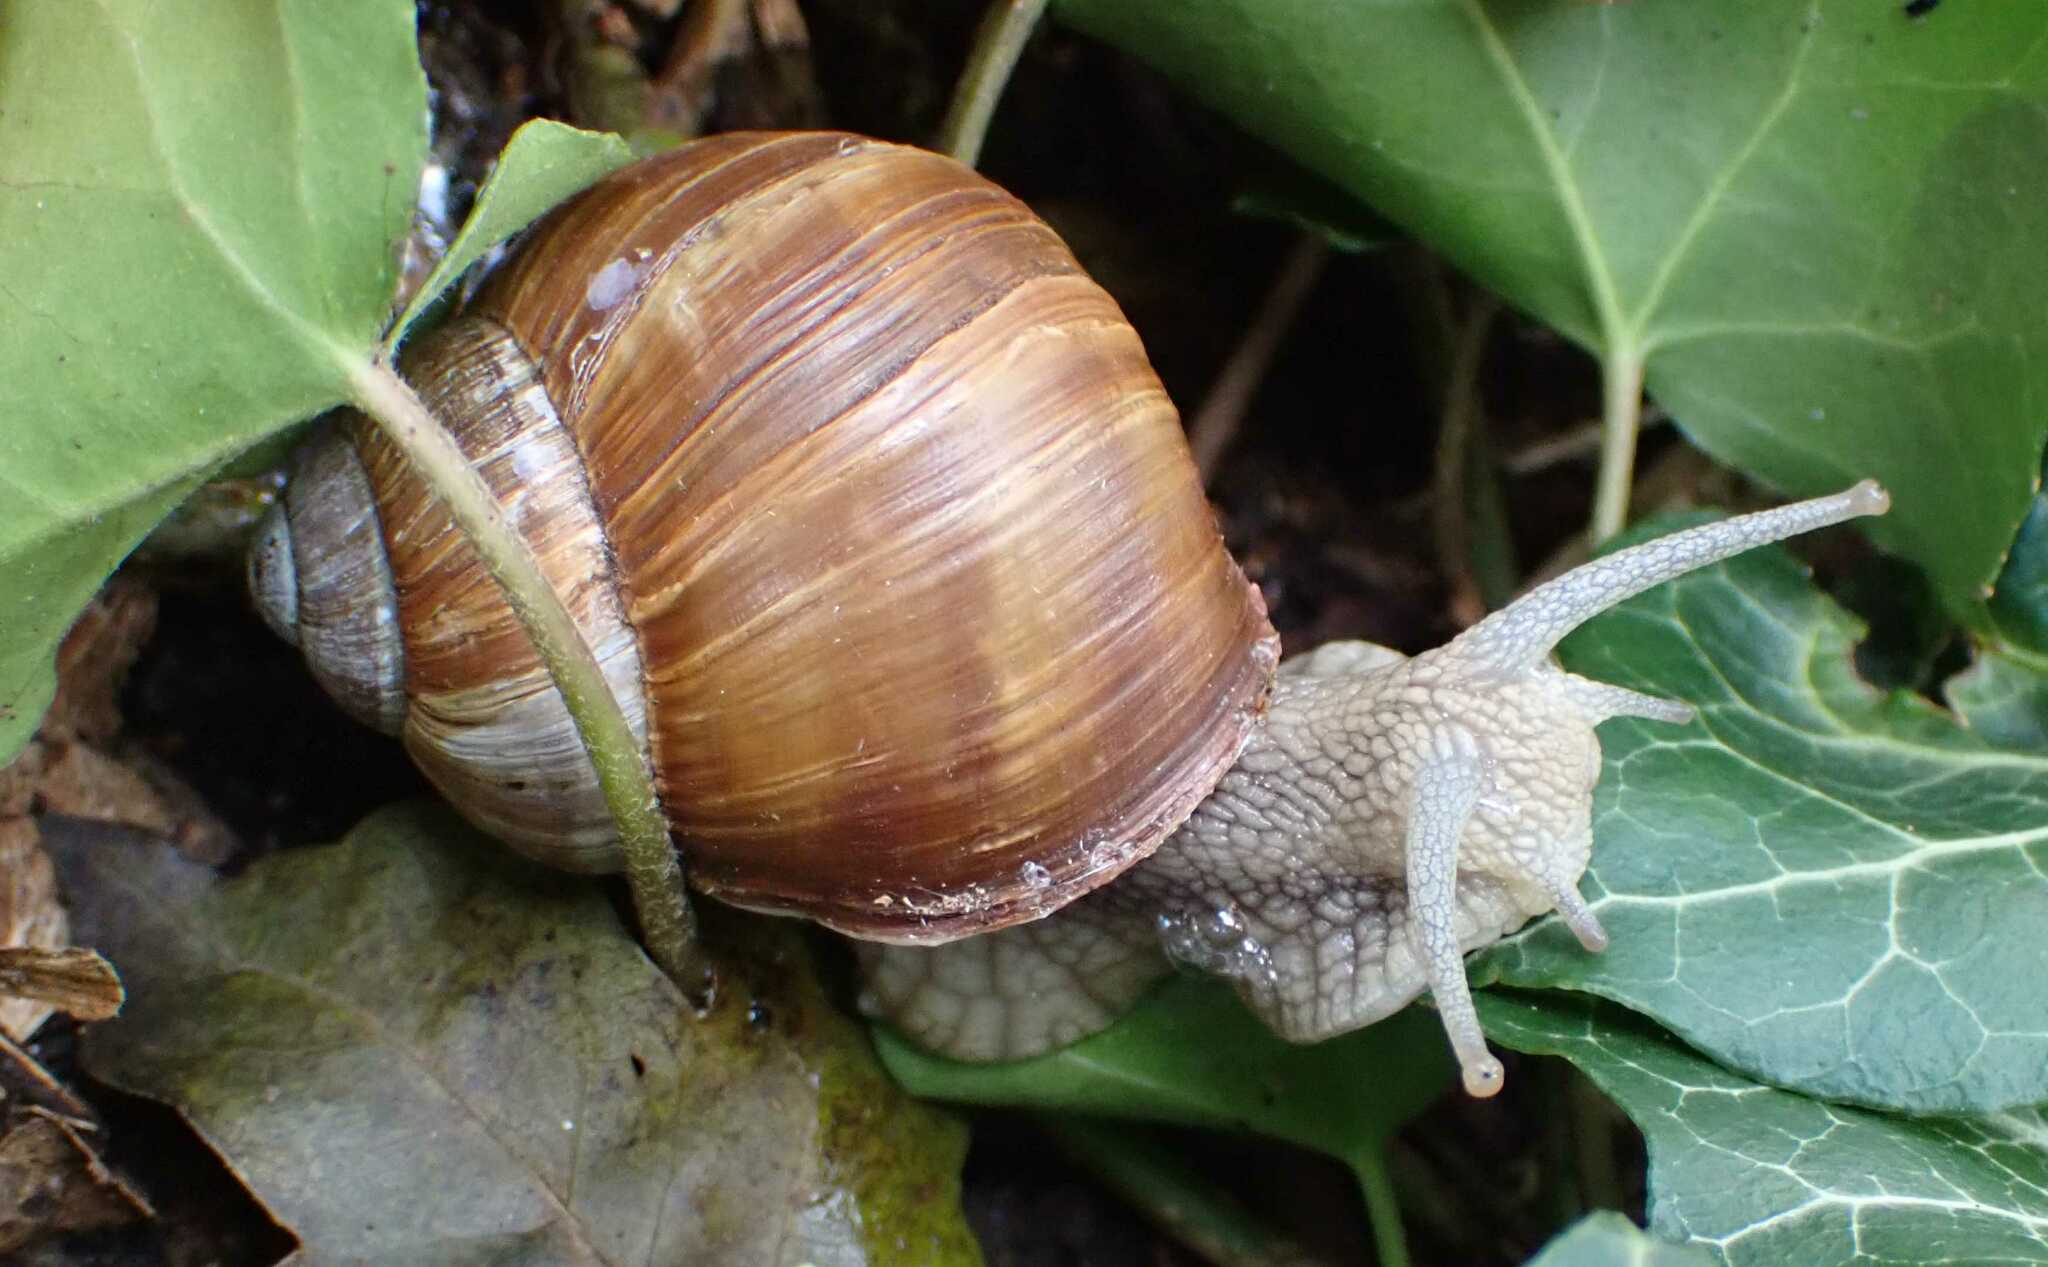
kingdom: Animalia
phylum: Mollusca
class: Gastropoda
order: Stylommatophora
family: Helicidae
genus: Helix
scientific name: Helix pomatia
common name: Roman snail
